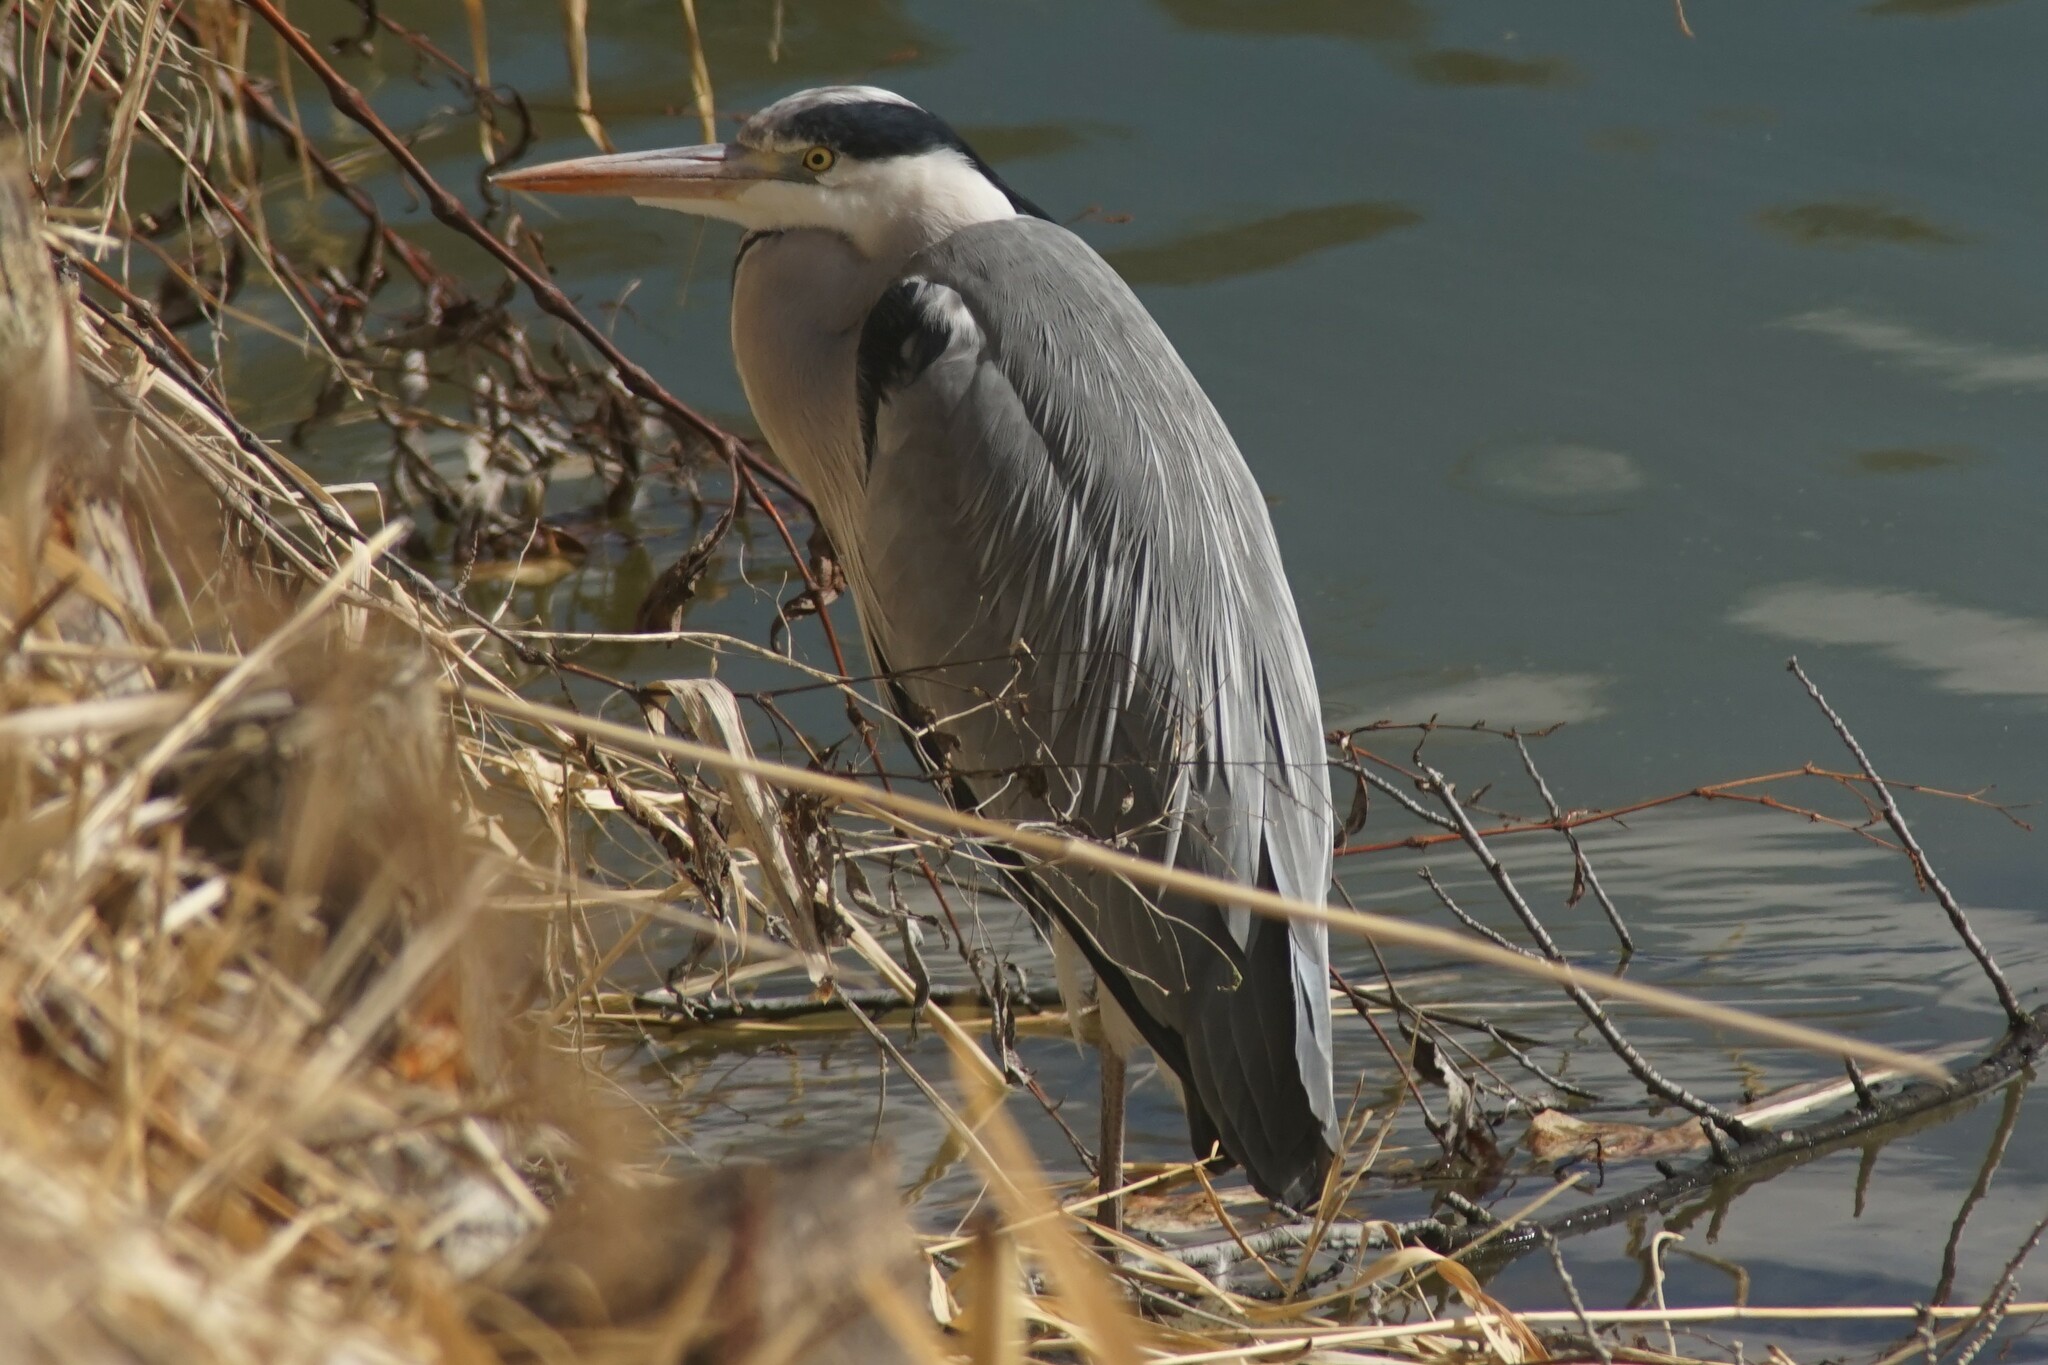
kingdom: Animalia
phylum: Chordata
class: Aves
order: Pelecaniformes
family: Ardeidae
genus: Ardea
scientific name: Ardea cinerea
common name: Grey heron
